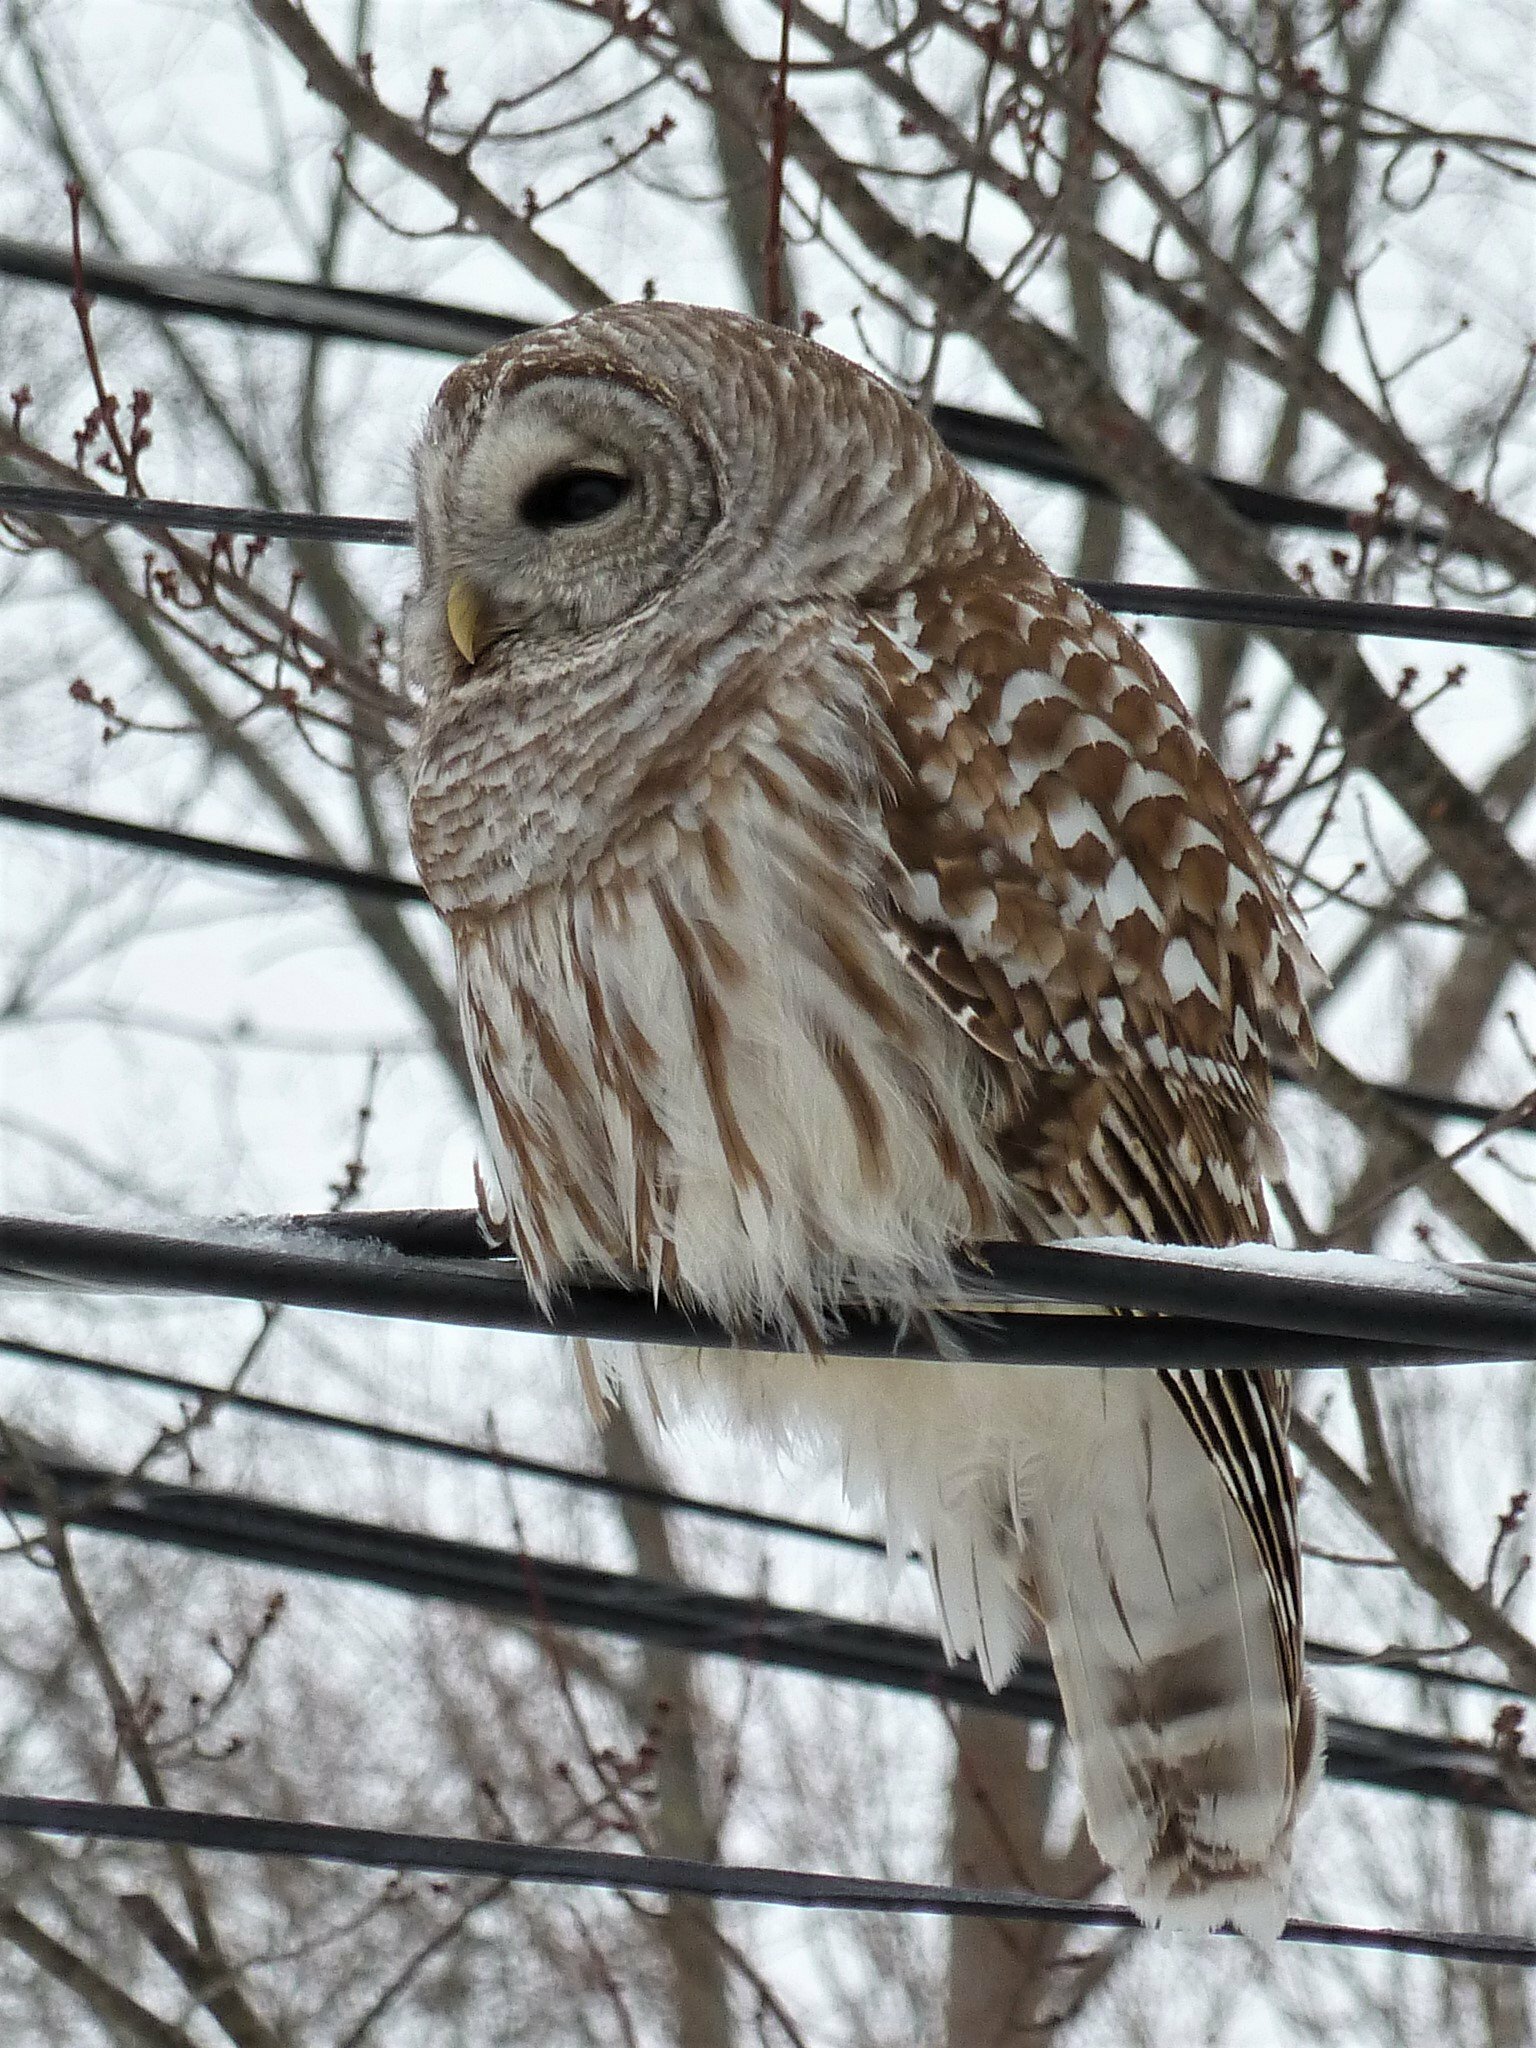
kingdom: Animalia
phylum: Chordata
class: Aves
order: Strigiformes
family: Strigidae
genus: Strix
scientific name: Strix varia
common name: Barred owl
